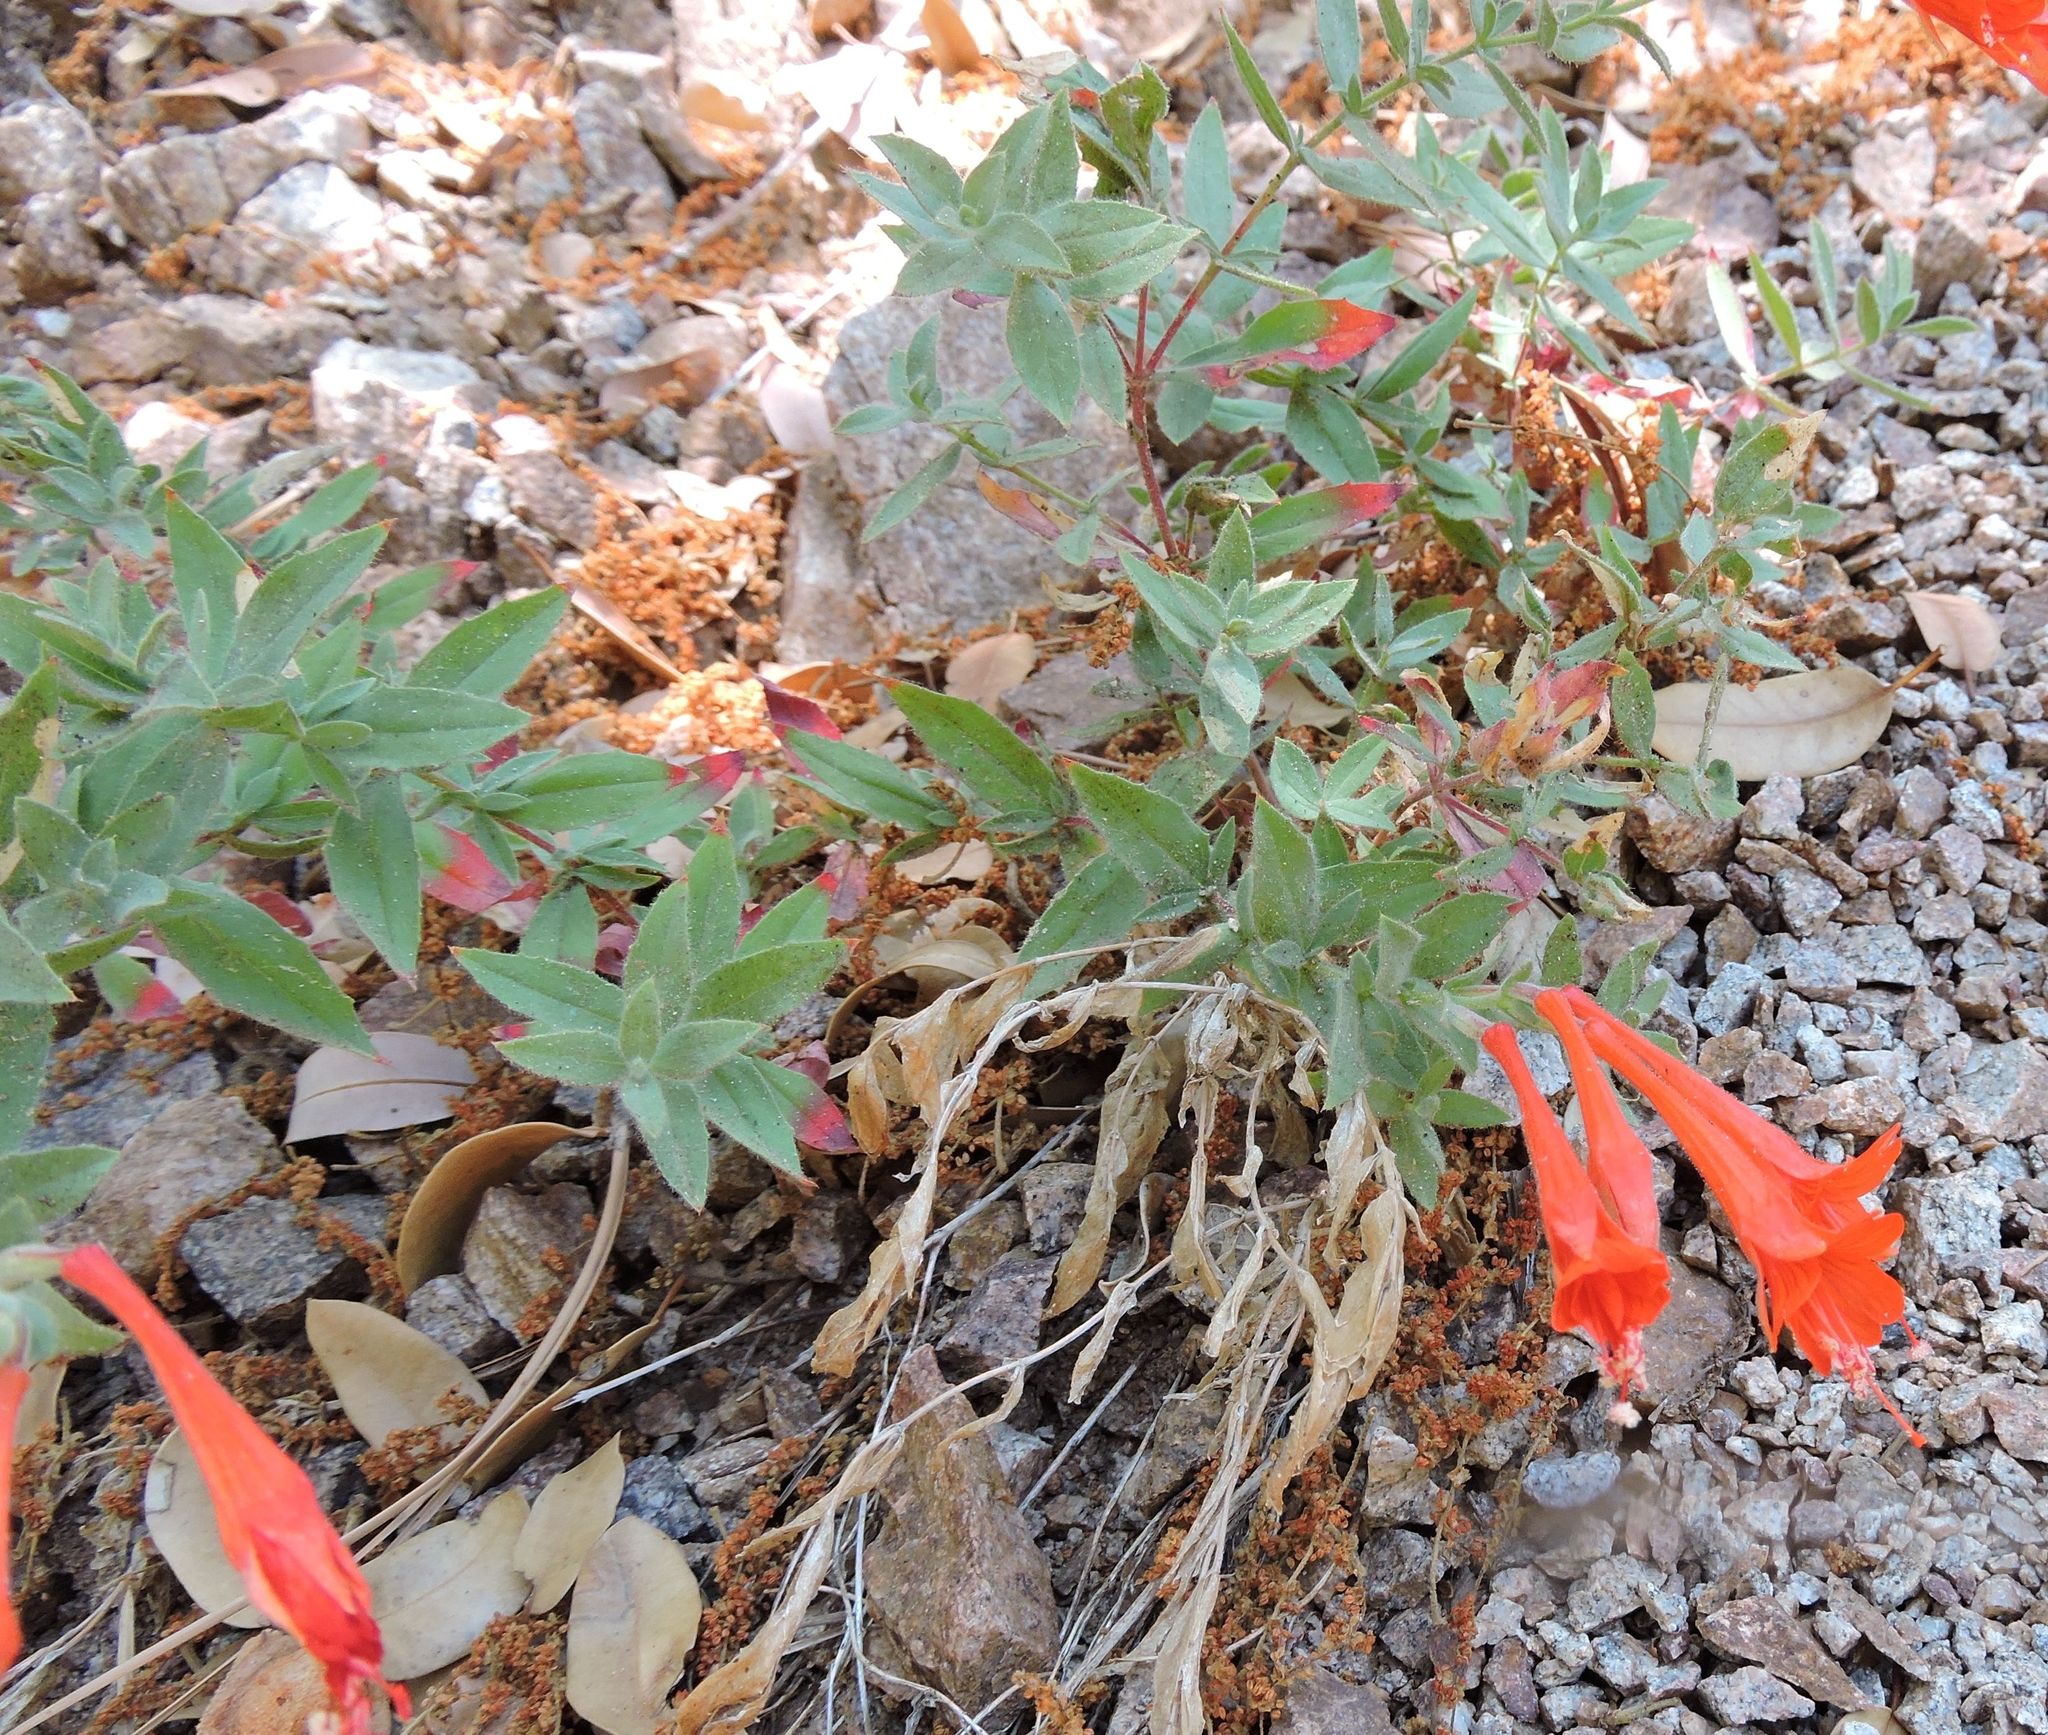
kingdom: Plantae
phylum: Tracheophyta
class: Magnoliopsida
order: Myrtales
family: Onagraceae
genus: Epilobium
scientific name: Epilobium canum
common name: California-fuchsia
